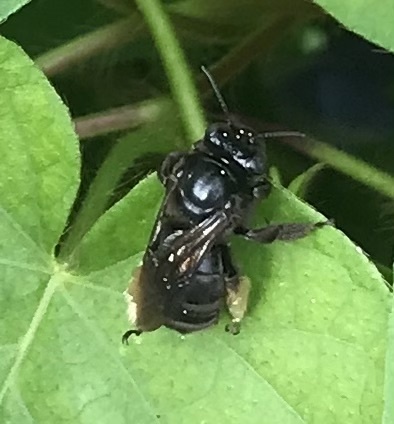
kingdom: Animalia
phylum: Arthropoda
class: Insecta
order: Hymenoptera
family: Apidae
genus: Melissodes
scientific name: Melissodes bimaculatus
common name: Two-spotted long-horned bee
